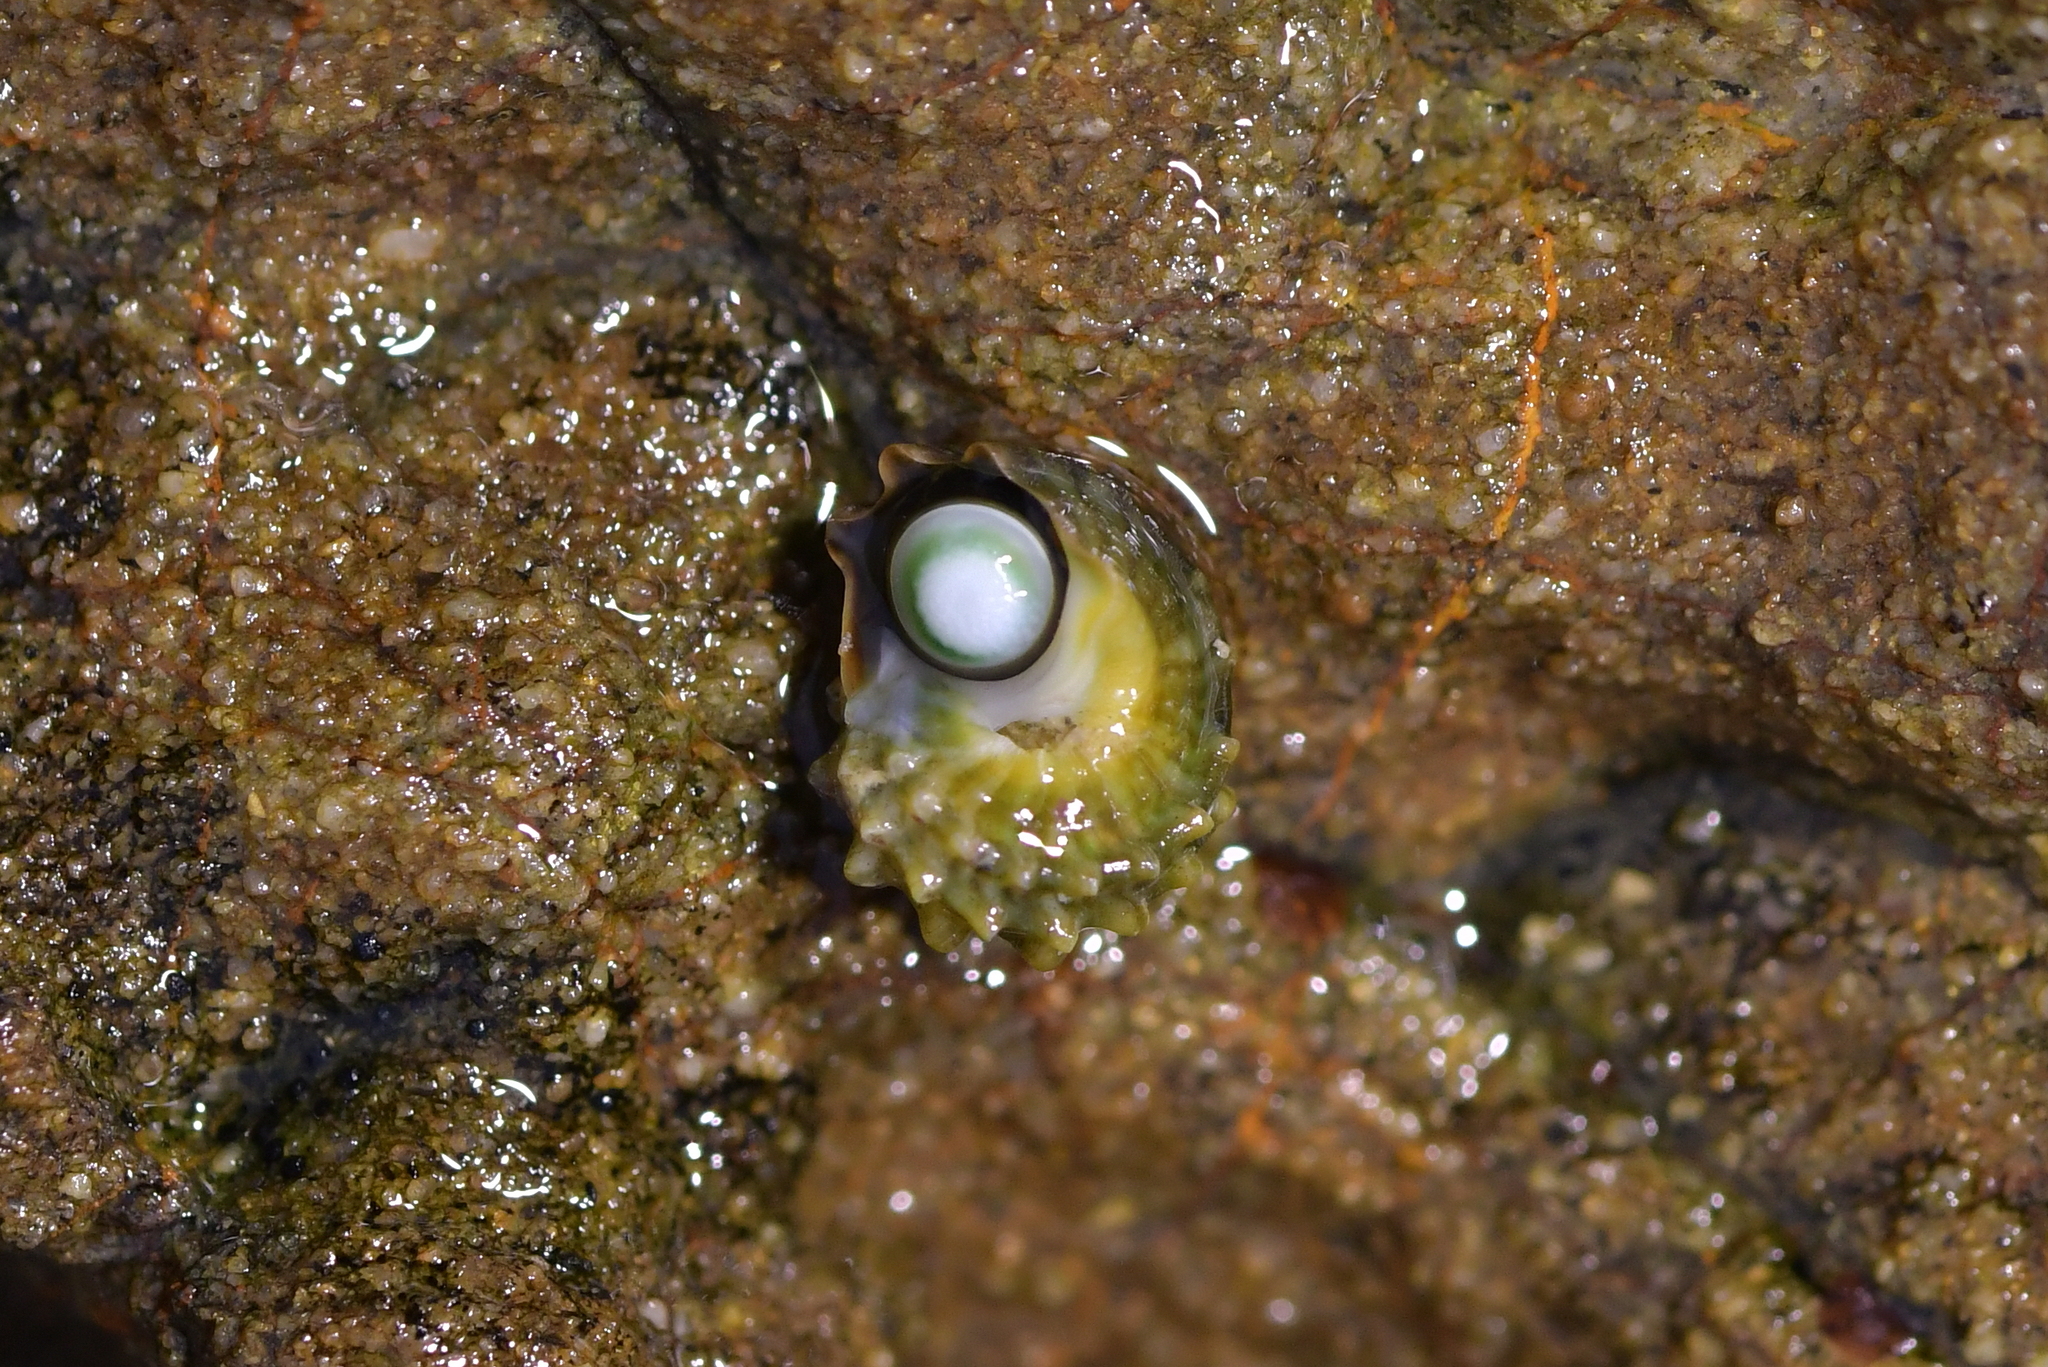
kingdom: Animalia
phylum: Mollusca
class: Gastropoda
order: Trochida
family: Turbinidae
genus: Lunella
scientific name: Lunella smaragda
